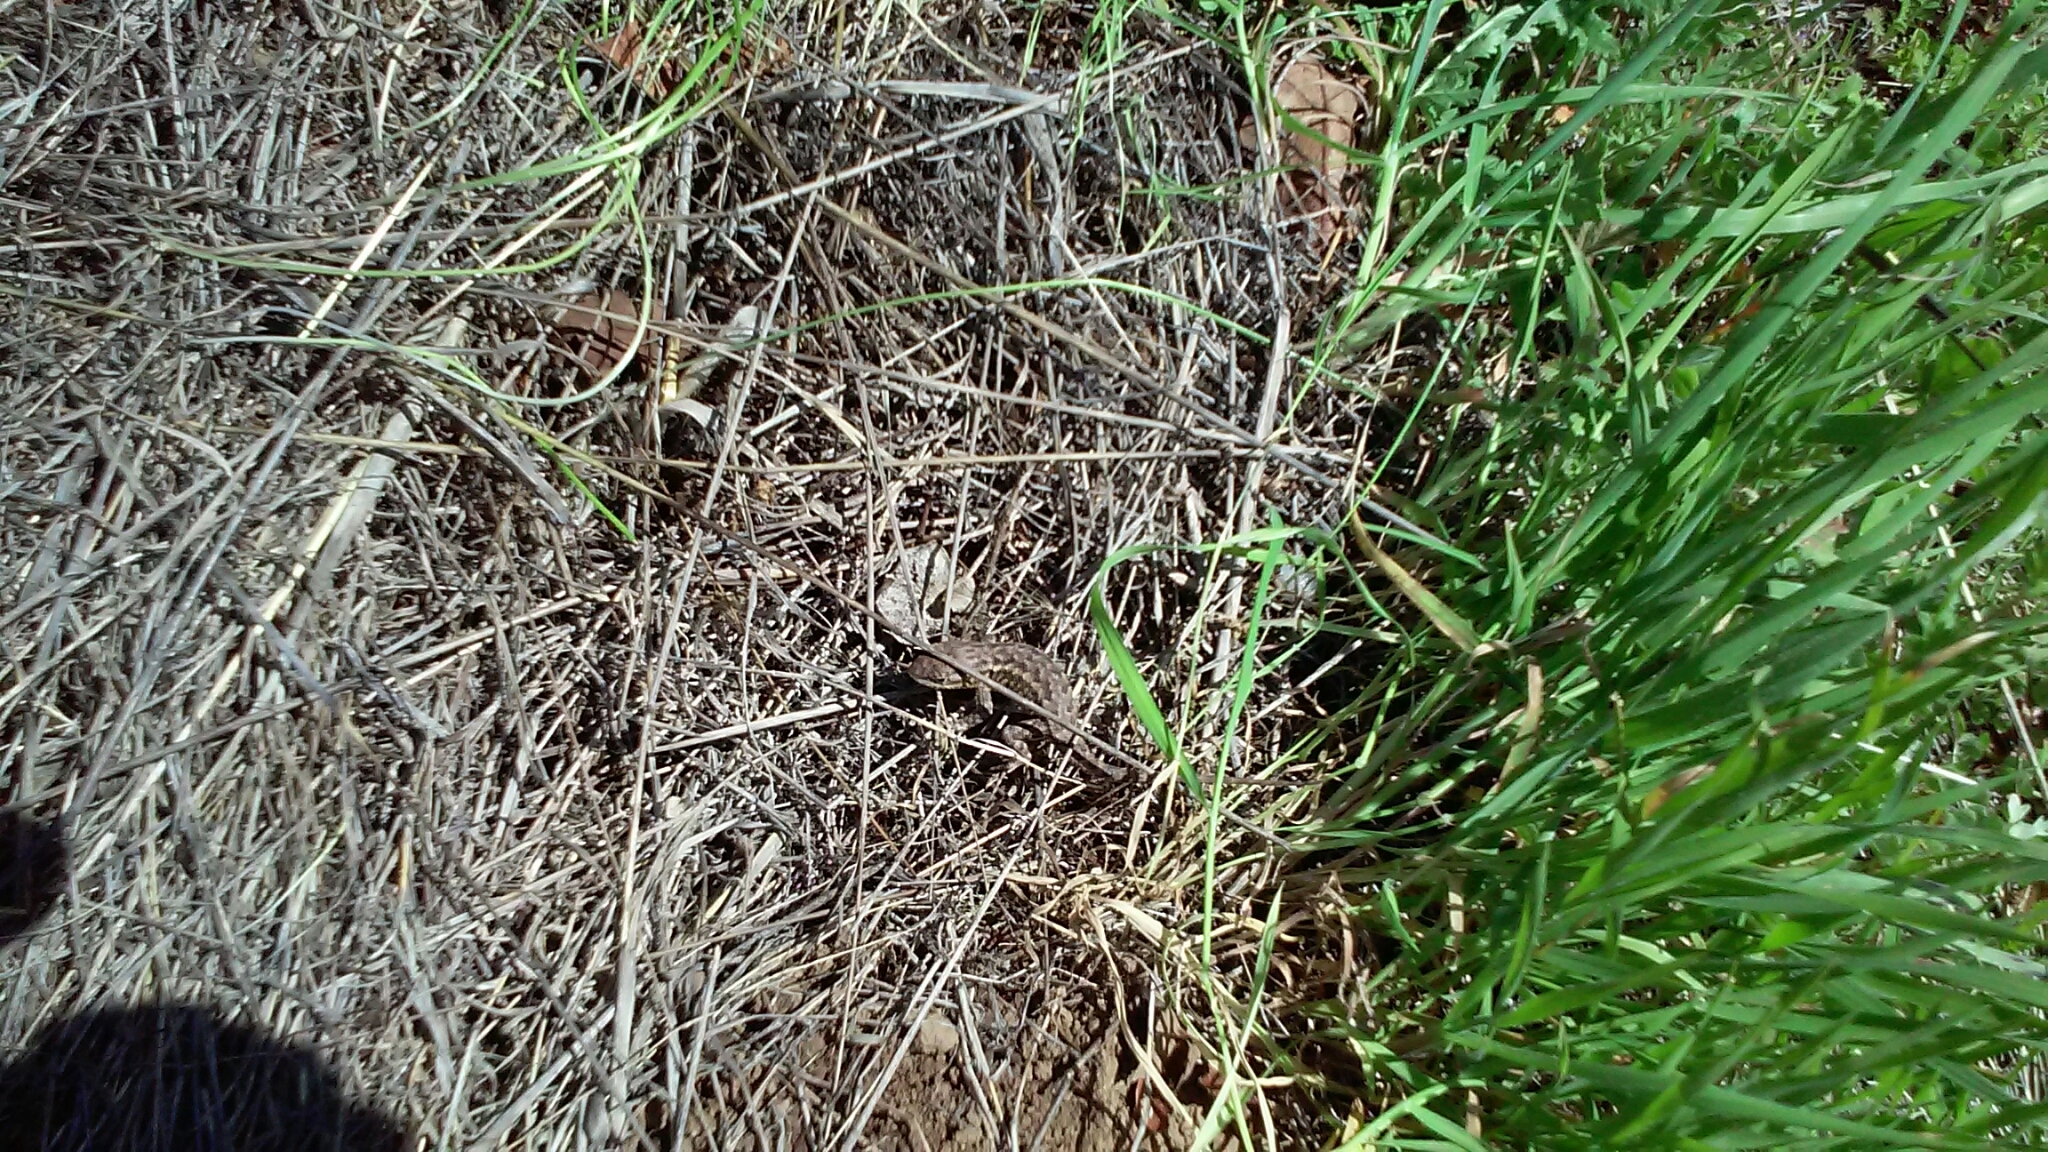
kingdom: Animalia
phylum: Chordata
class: Squamata
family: Phrynosomatidae
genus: Sceloporus
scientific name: Sceloporus occidentalis
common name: Western fence lizard
